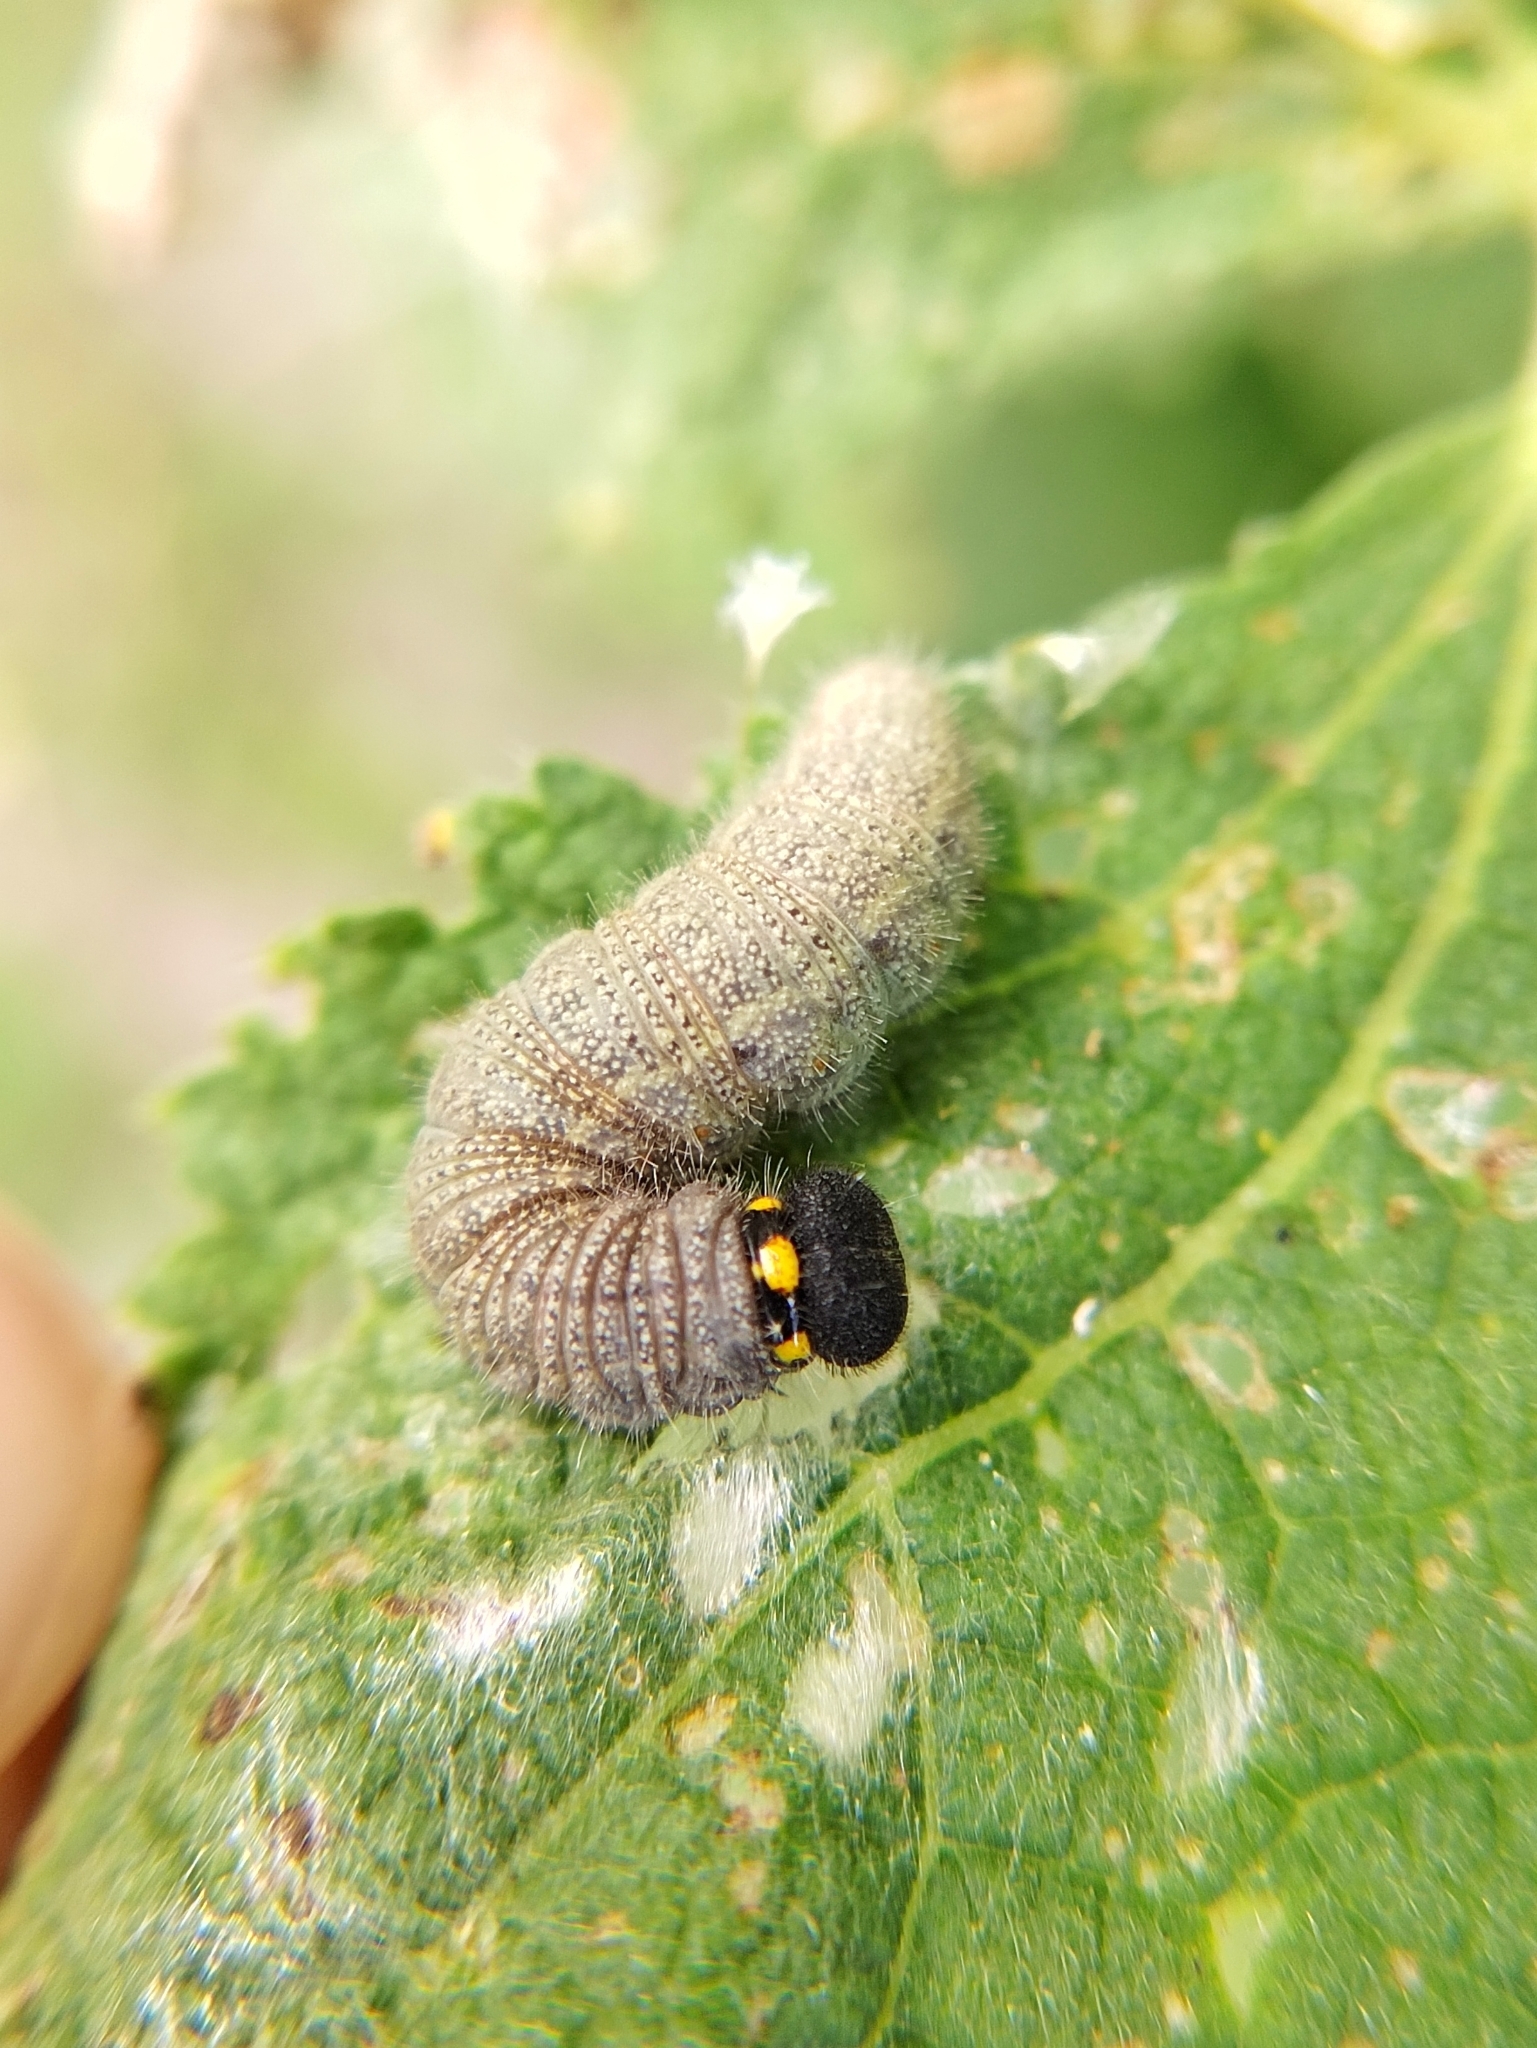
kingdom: Animalia
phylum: Arthropoda
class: Insecta
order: Lepidoptera
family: Hesperiidae
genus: Carcharodus
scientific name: Carcharodus alceae
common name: Mallow skipper
